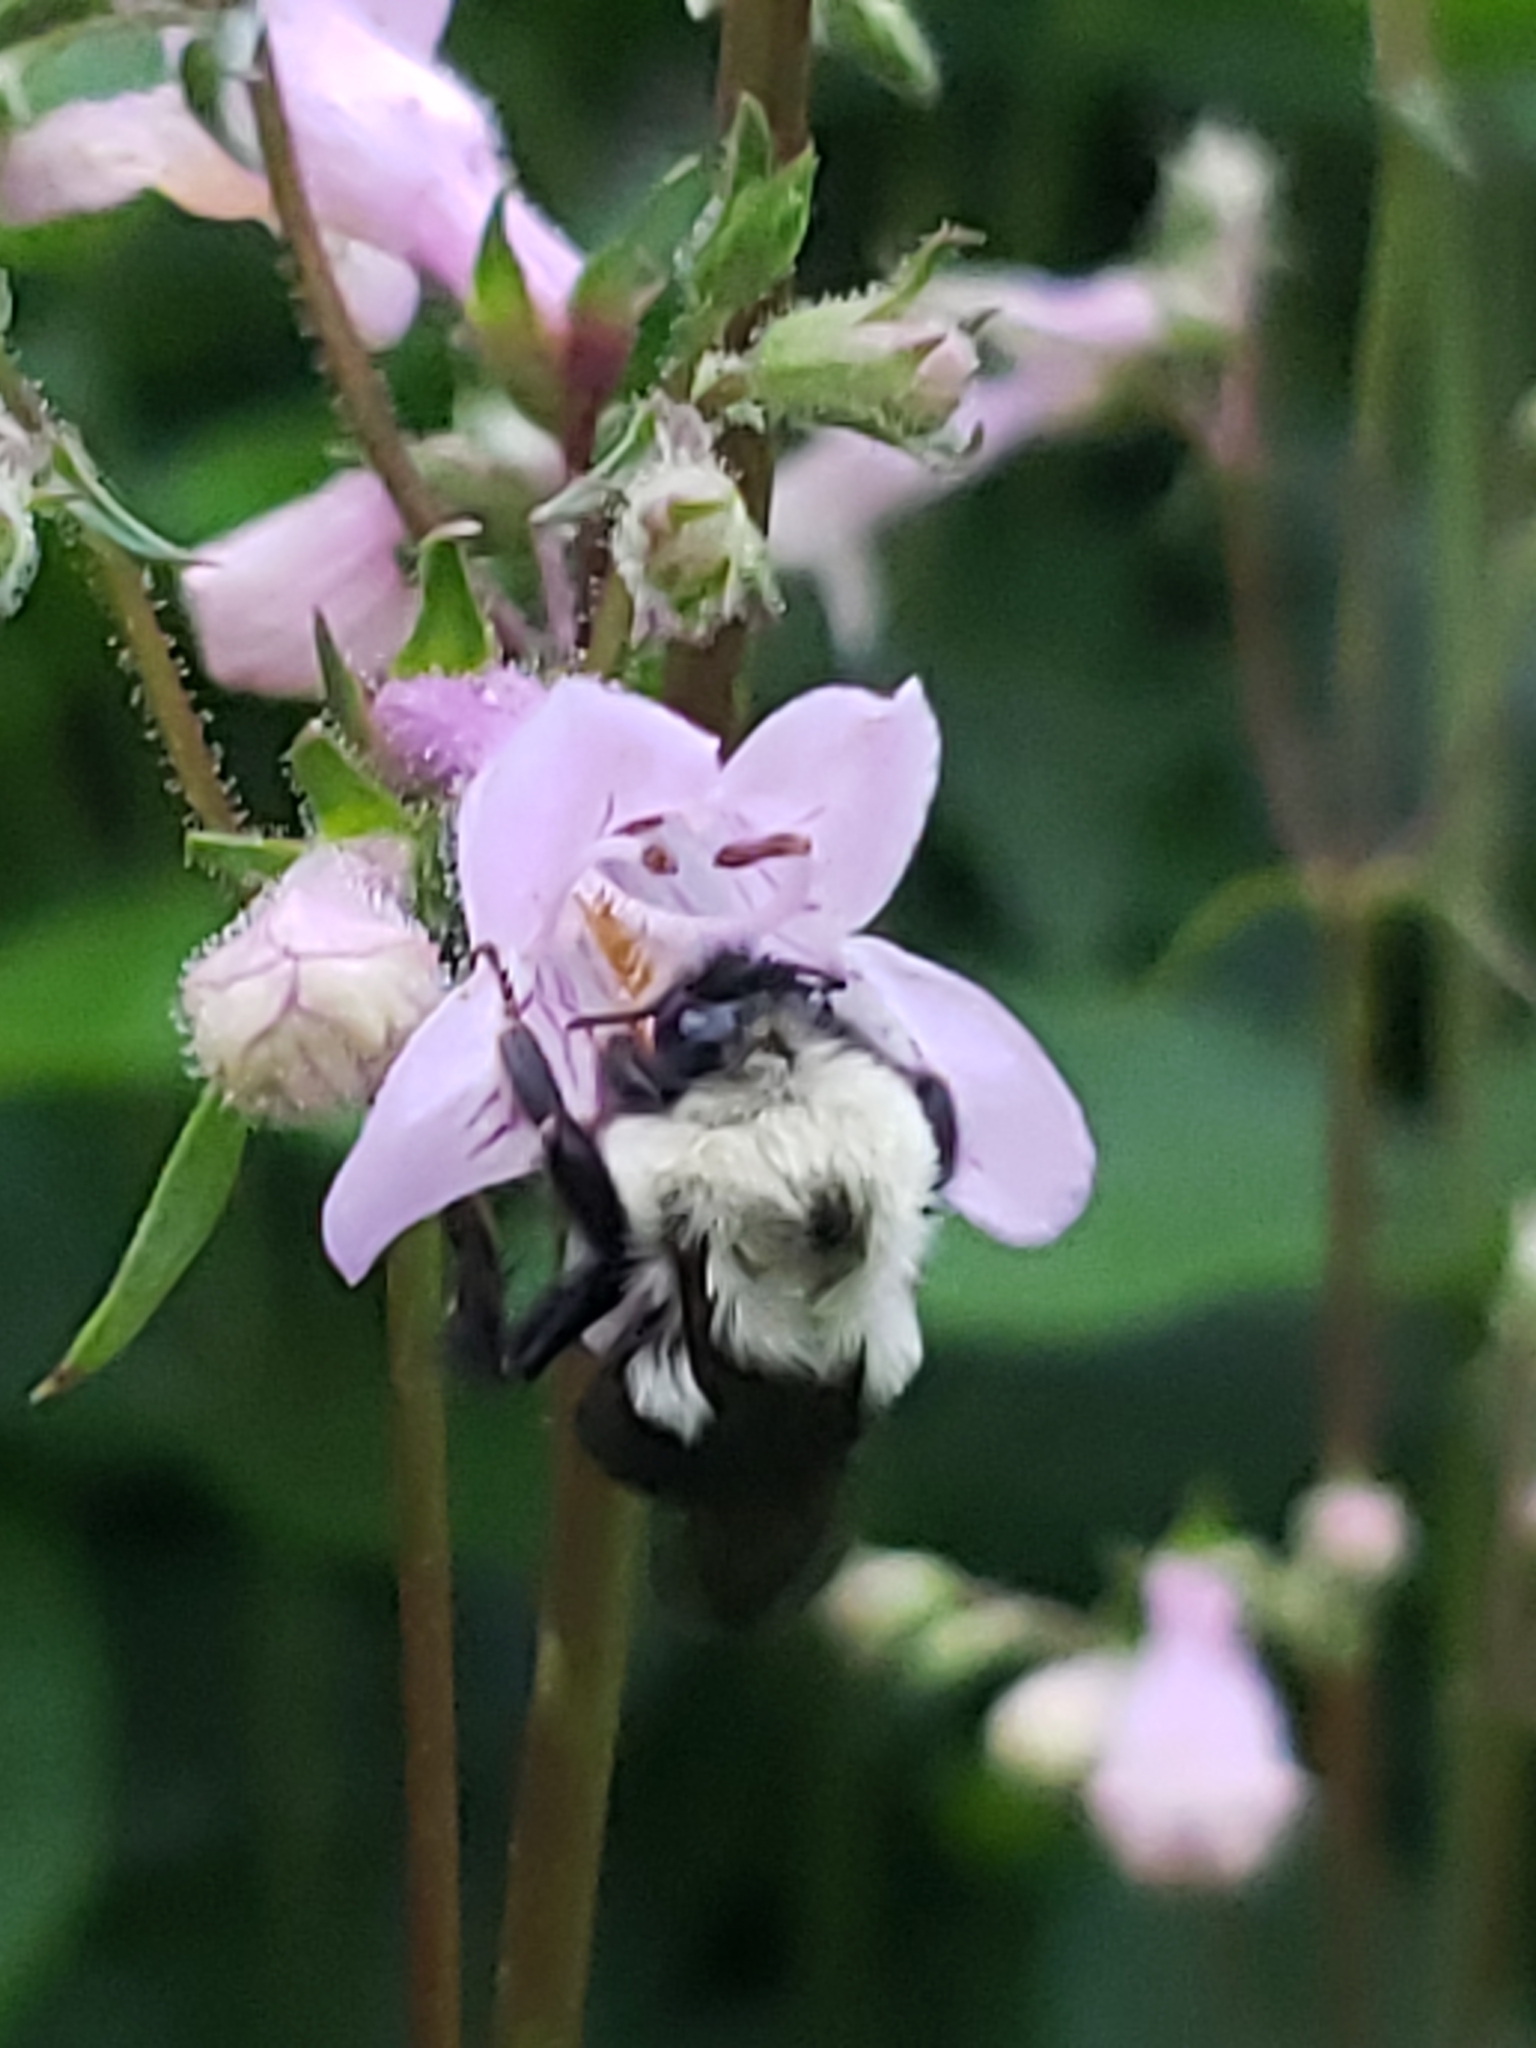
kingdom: Animalia
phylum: Arthropoda
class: Insecta
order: Hymenoptera
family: Apidae
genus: Bombus
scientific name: Bombus bimaculatus
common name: Two-spotted bumble bee
